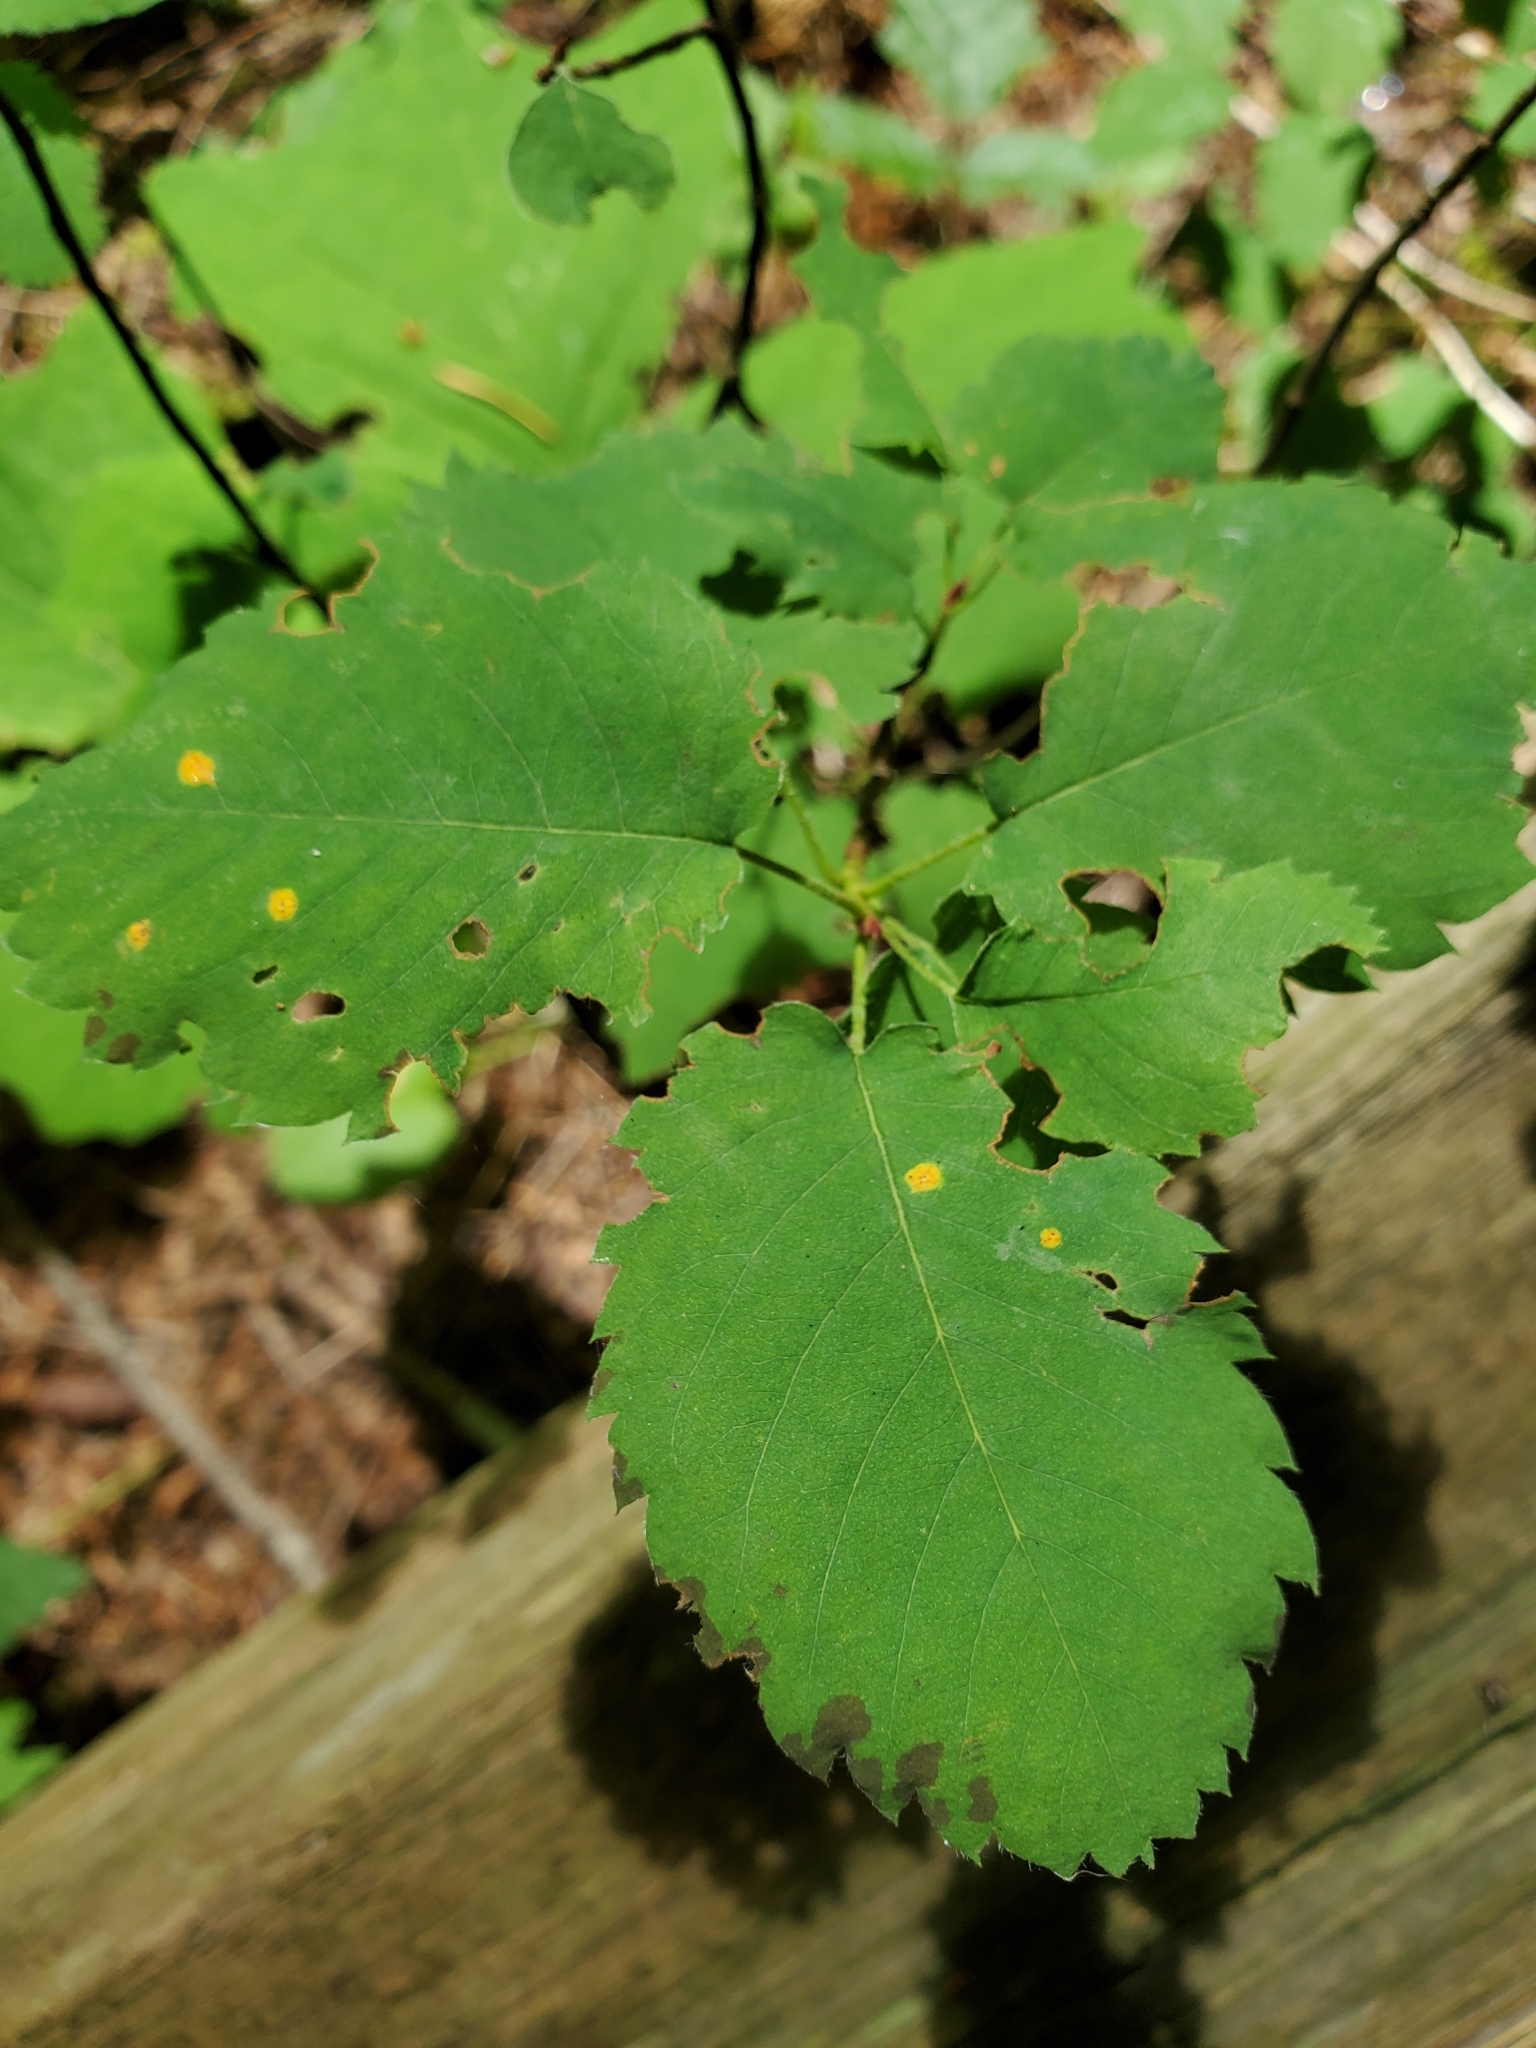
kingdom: Plantae
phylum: Tracheophyta
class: Magnoliopsida
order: Rosales
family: Rosaceae
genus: Amelanchier
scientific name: Amelanchier alnifolia
